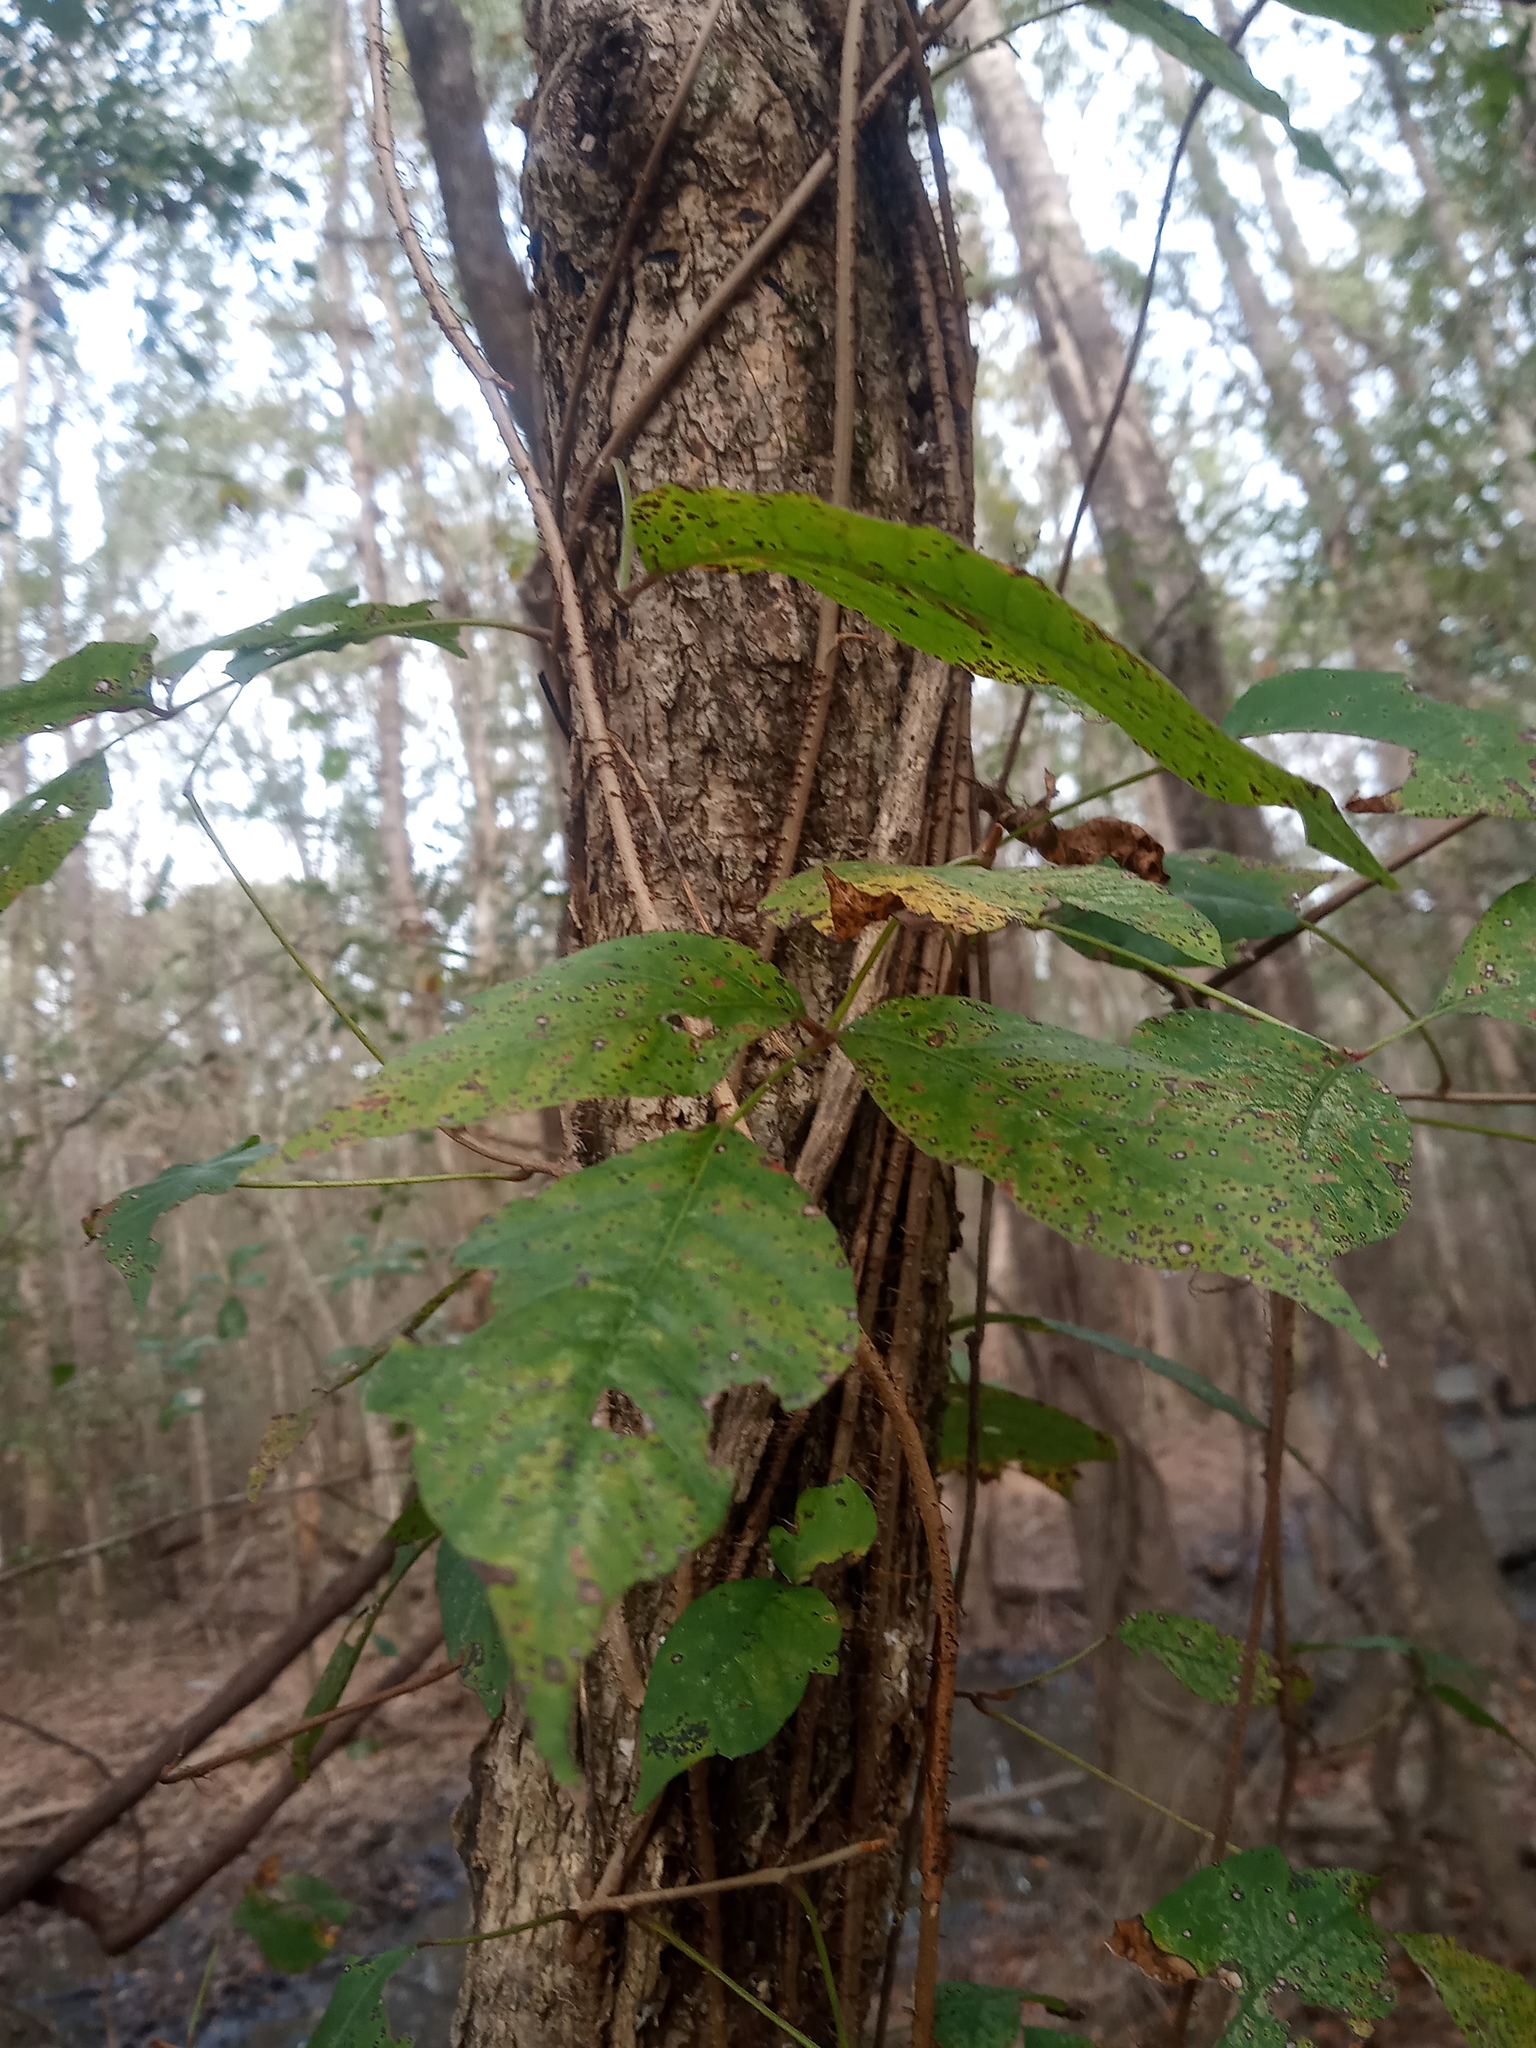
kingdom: Plantae
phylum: Tracheophyta
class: Magnoliopsida
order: Sapindales
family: Anacardiaceae
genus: Toxicodendron
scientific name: Toxicodendron radicans
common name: Poison ivy
